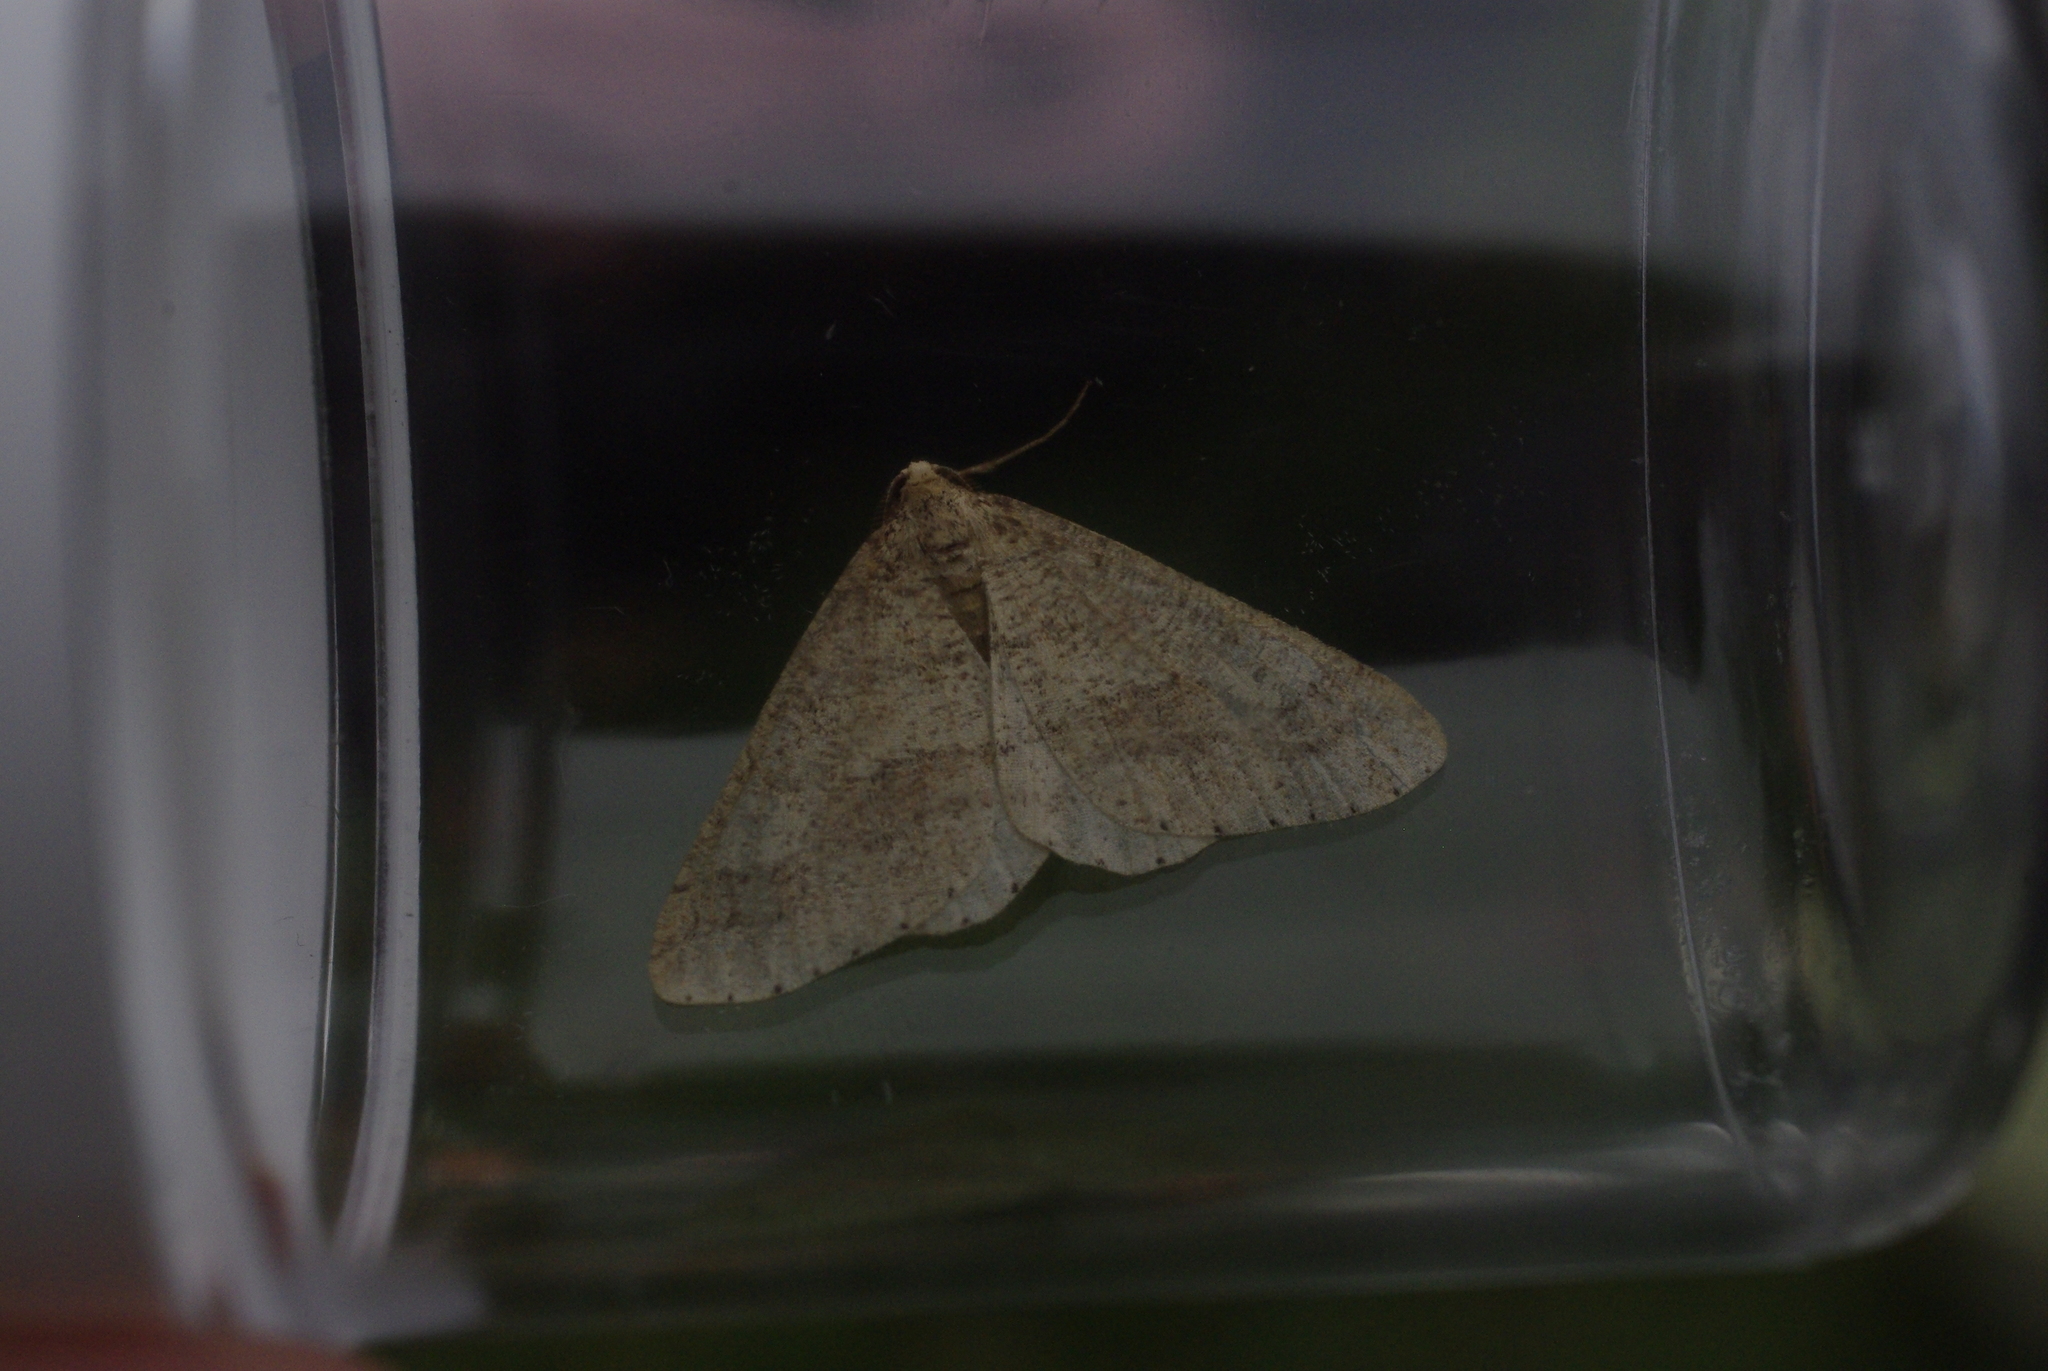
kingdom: Animalia
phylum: Arthropoda
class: Insecta
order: Lepidoptera
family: Geometridae
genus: Agriopis
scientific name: Agriopis marginaria
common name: Dotted border
